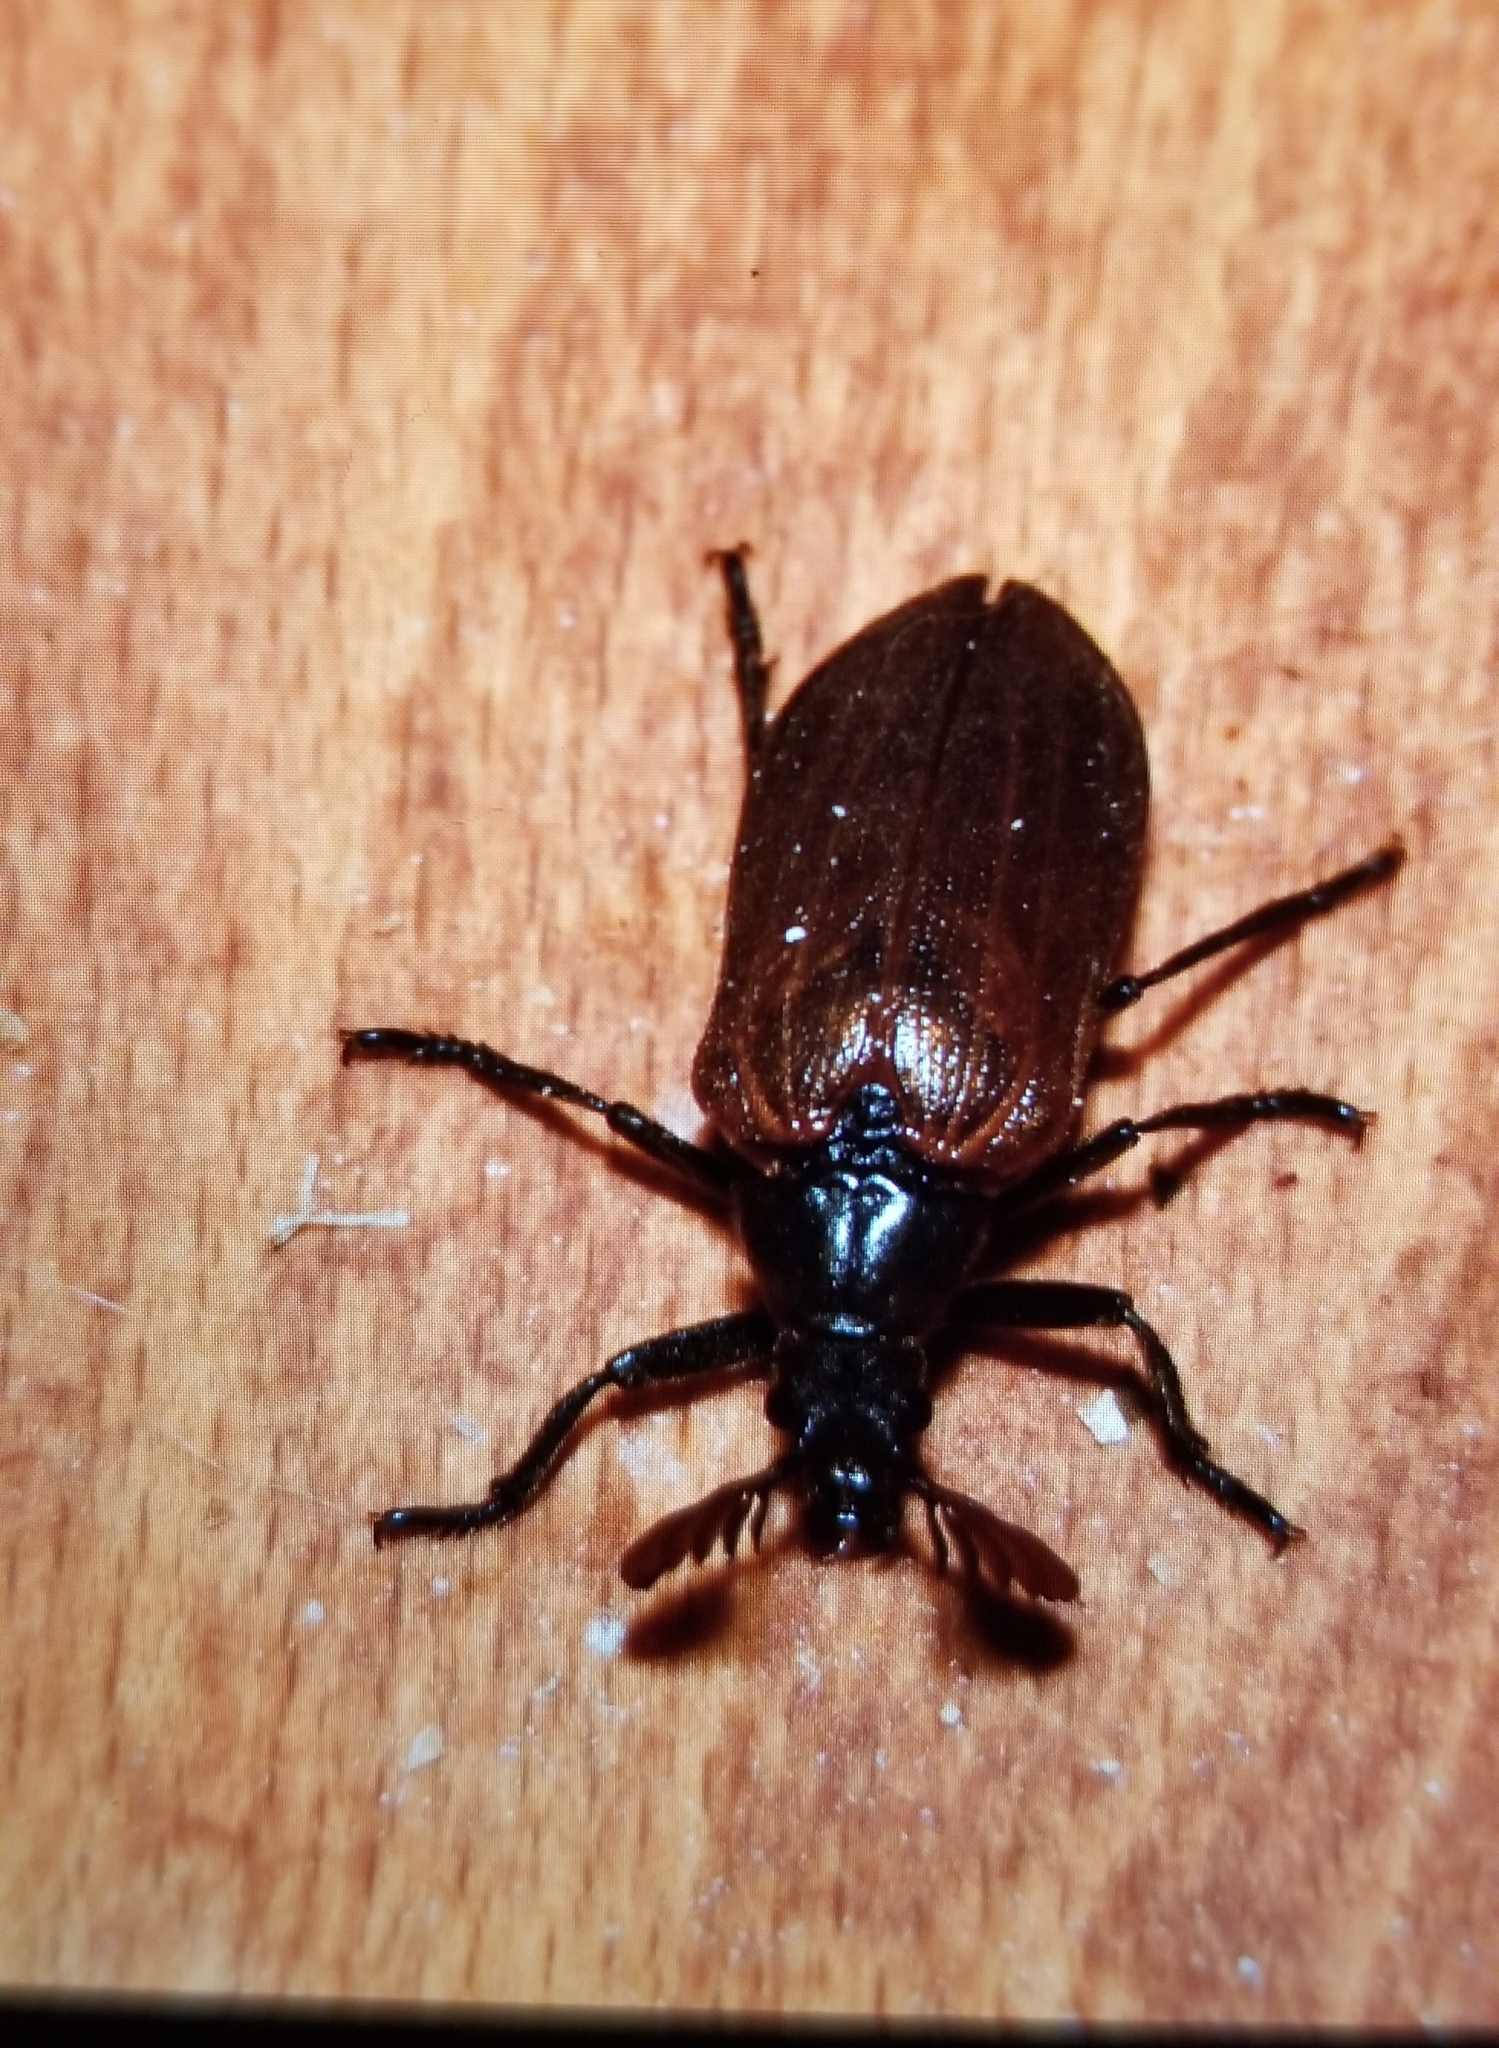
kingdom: Animalia
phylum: Arthropoda
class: Insecta
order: Coleoptera
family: Rhipiceridae
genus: Sandalus
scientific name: Sandalus niger
